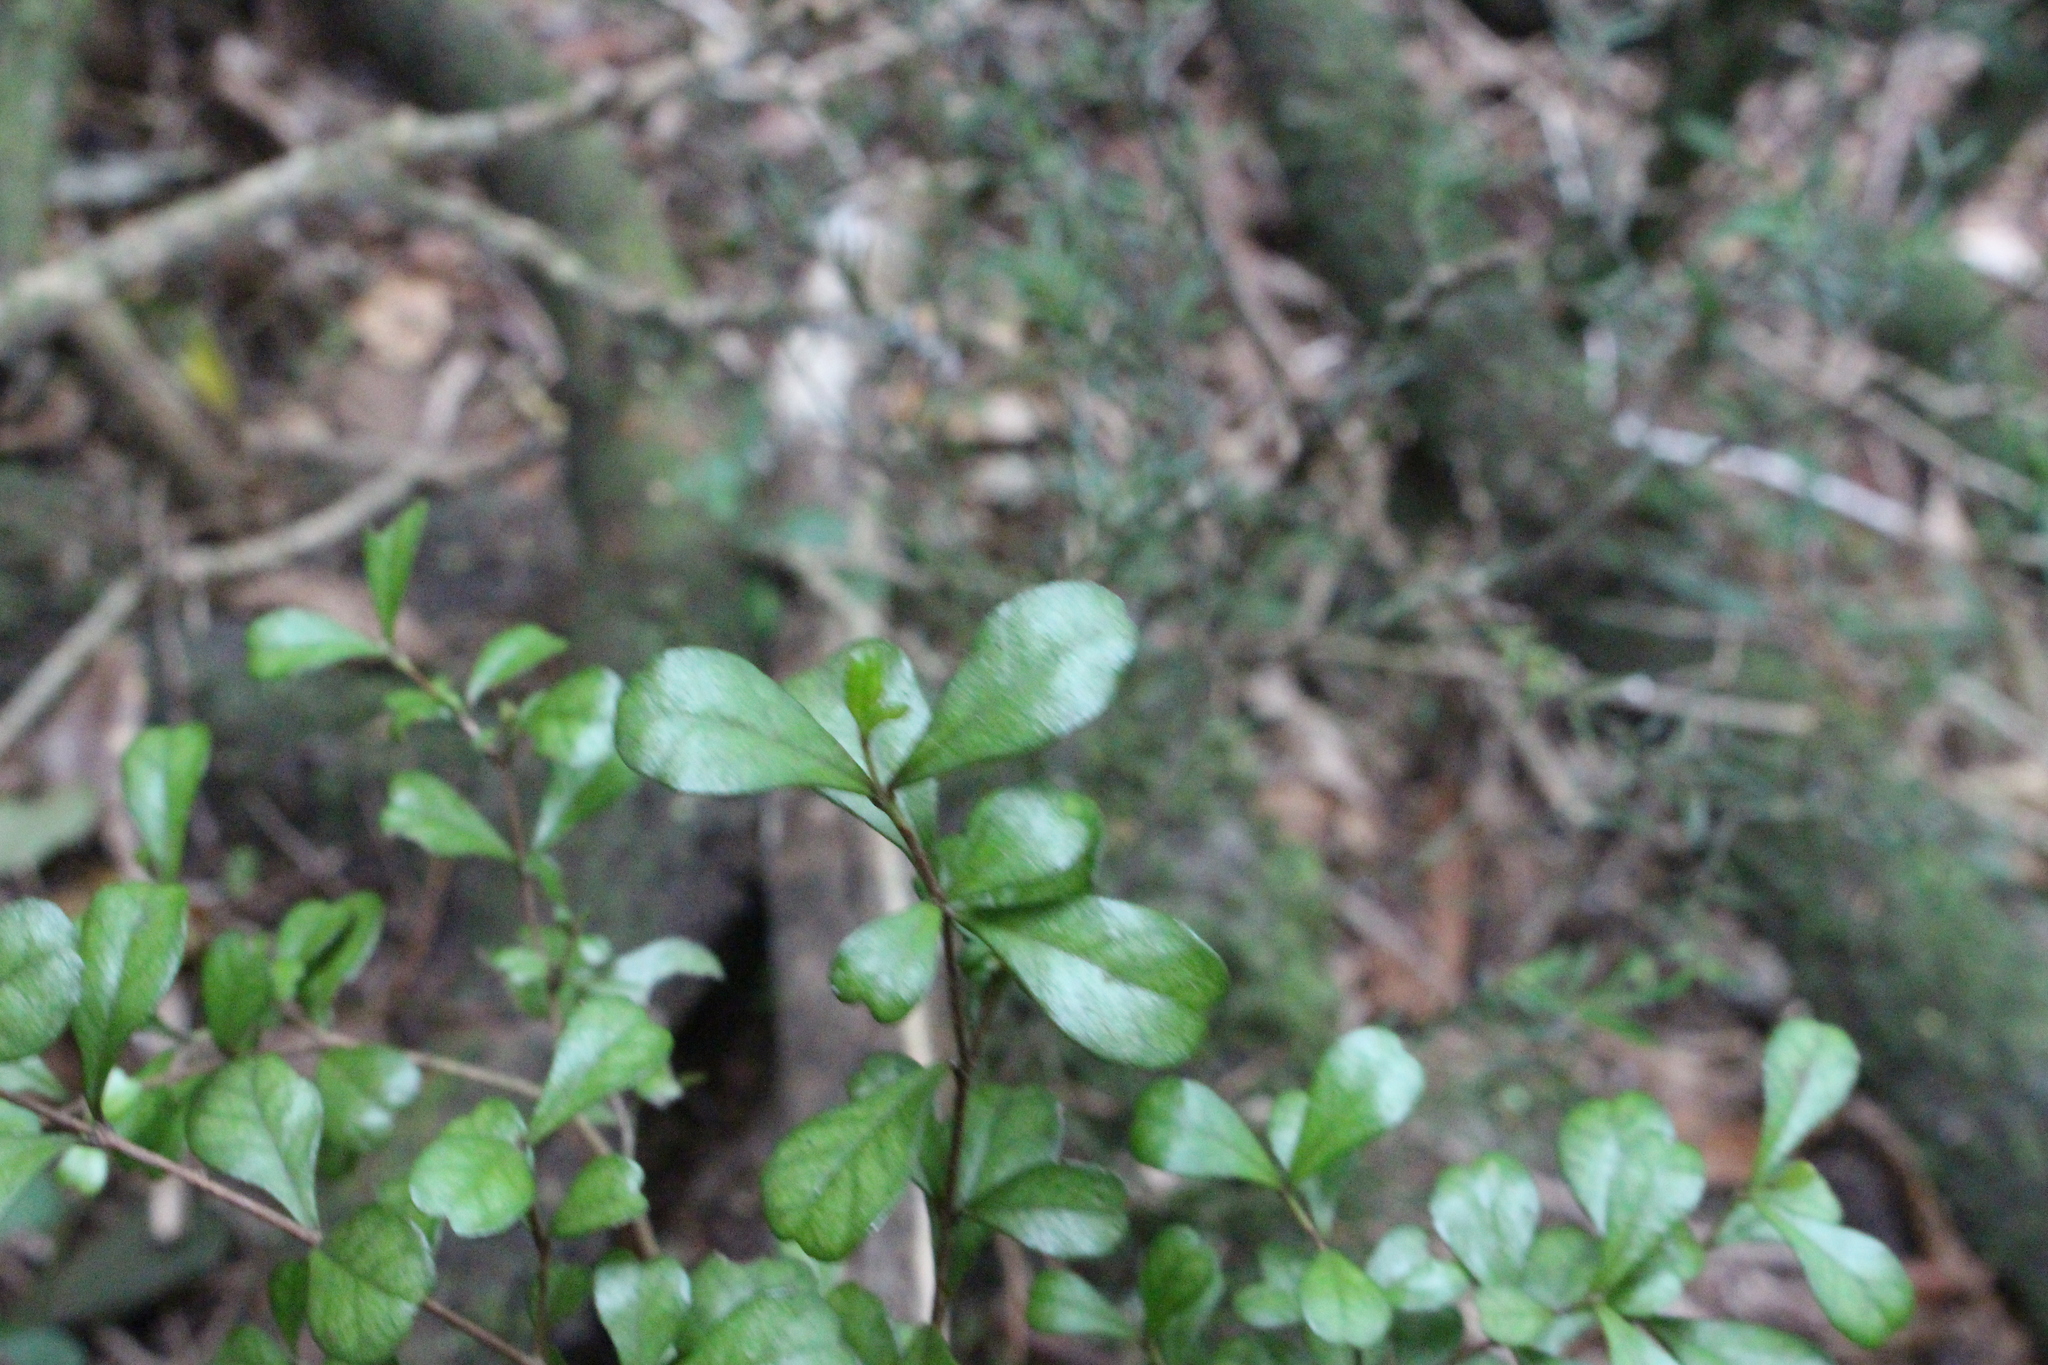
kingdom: Plantae
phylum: Tracheophyta
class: Magnoliopsida
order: Myrtales
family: Myrtaceae
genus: Lophomyrtus
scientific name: Lophomyrtus obcordata
